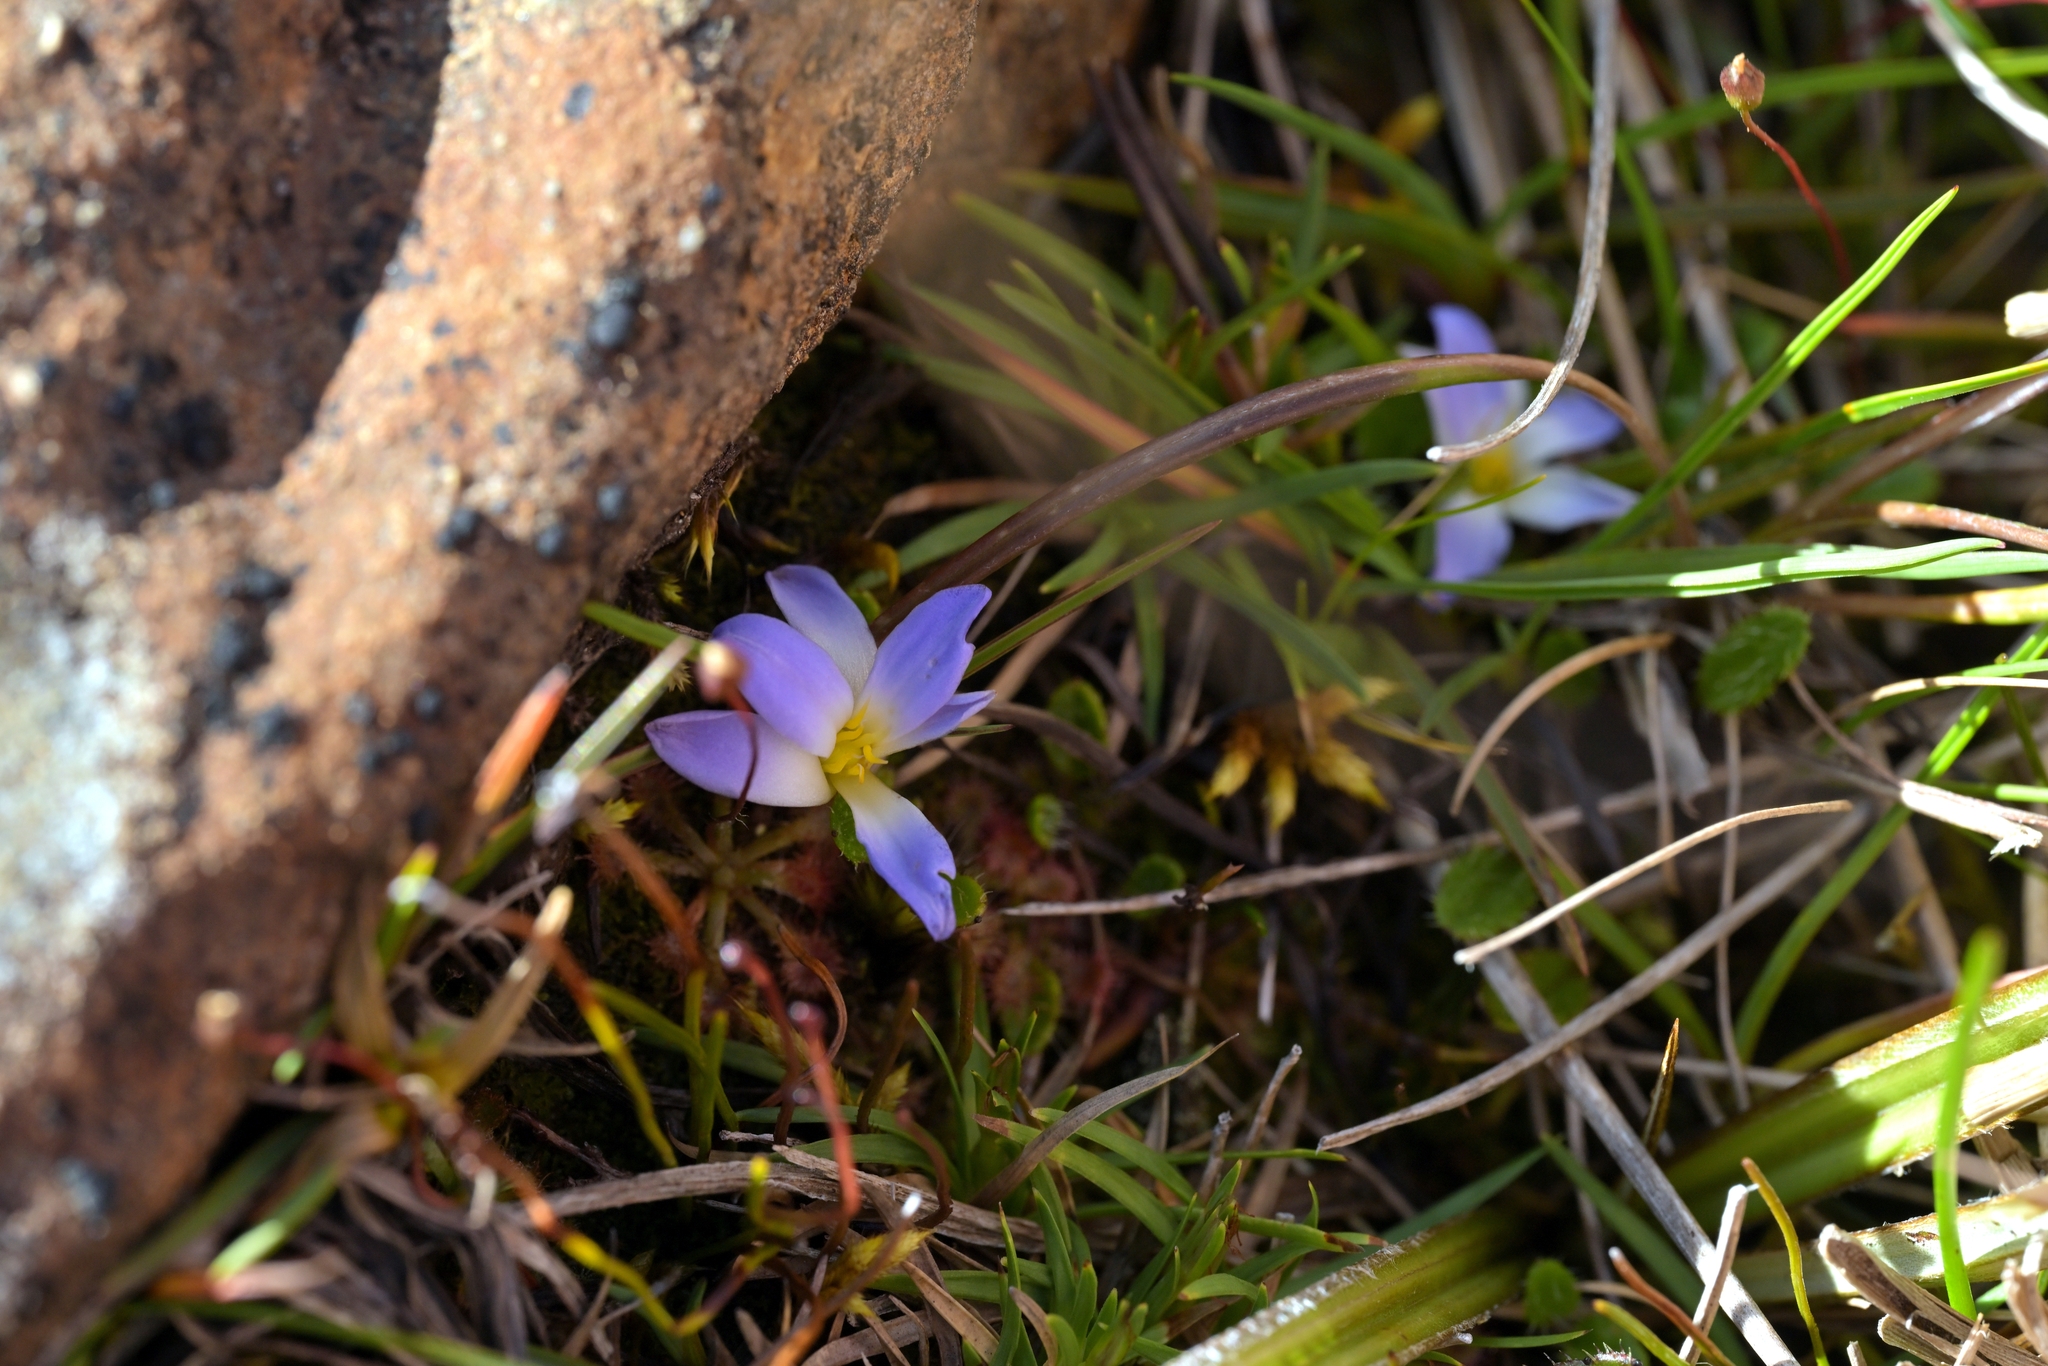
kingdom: Plantae
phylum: Tracheophyta
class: Liliopsida
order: Asparagales
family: Asphodelaceae
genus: Herpolirion
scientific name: Herpolirion novae-zelandiae
